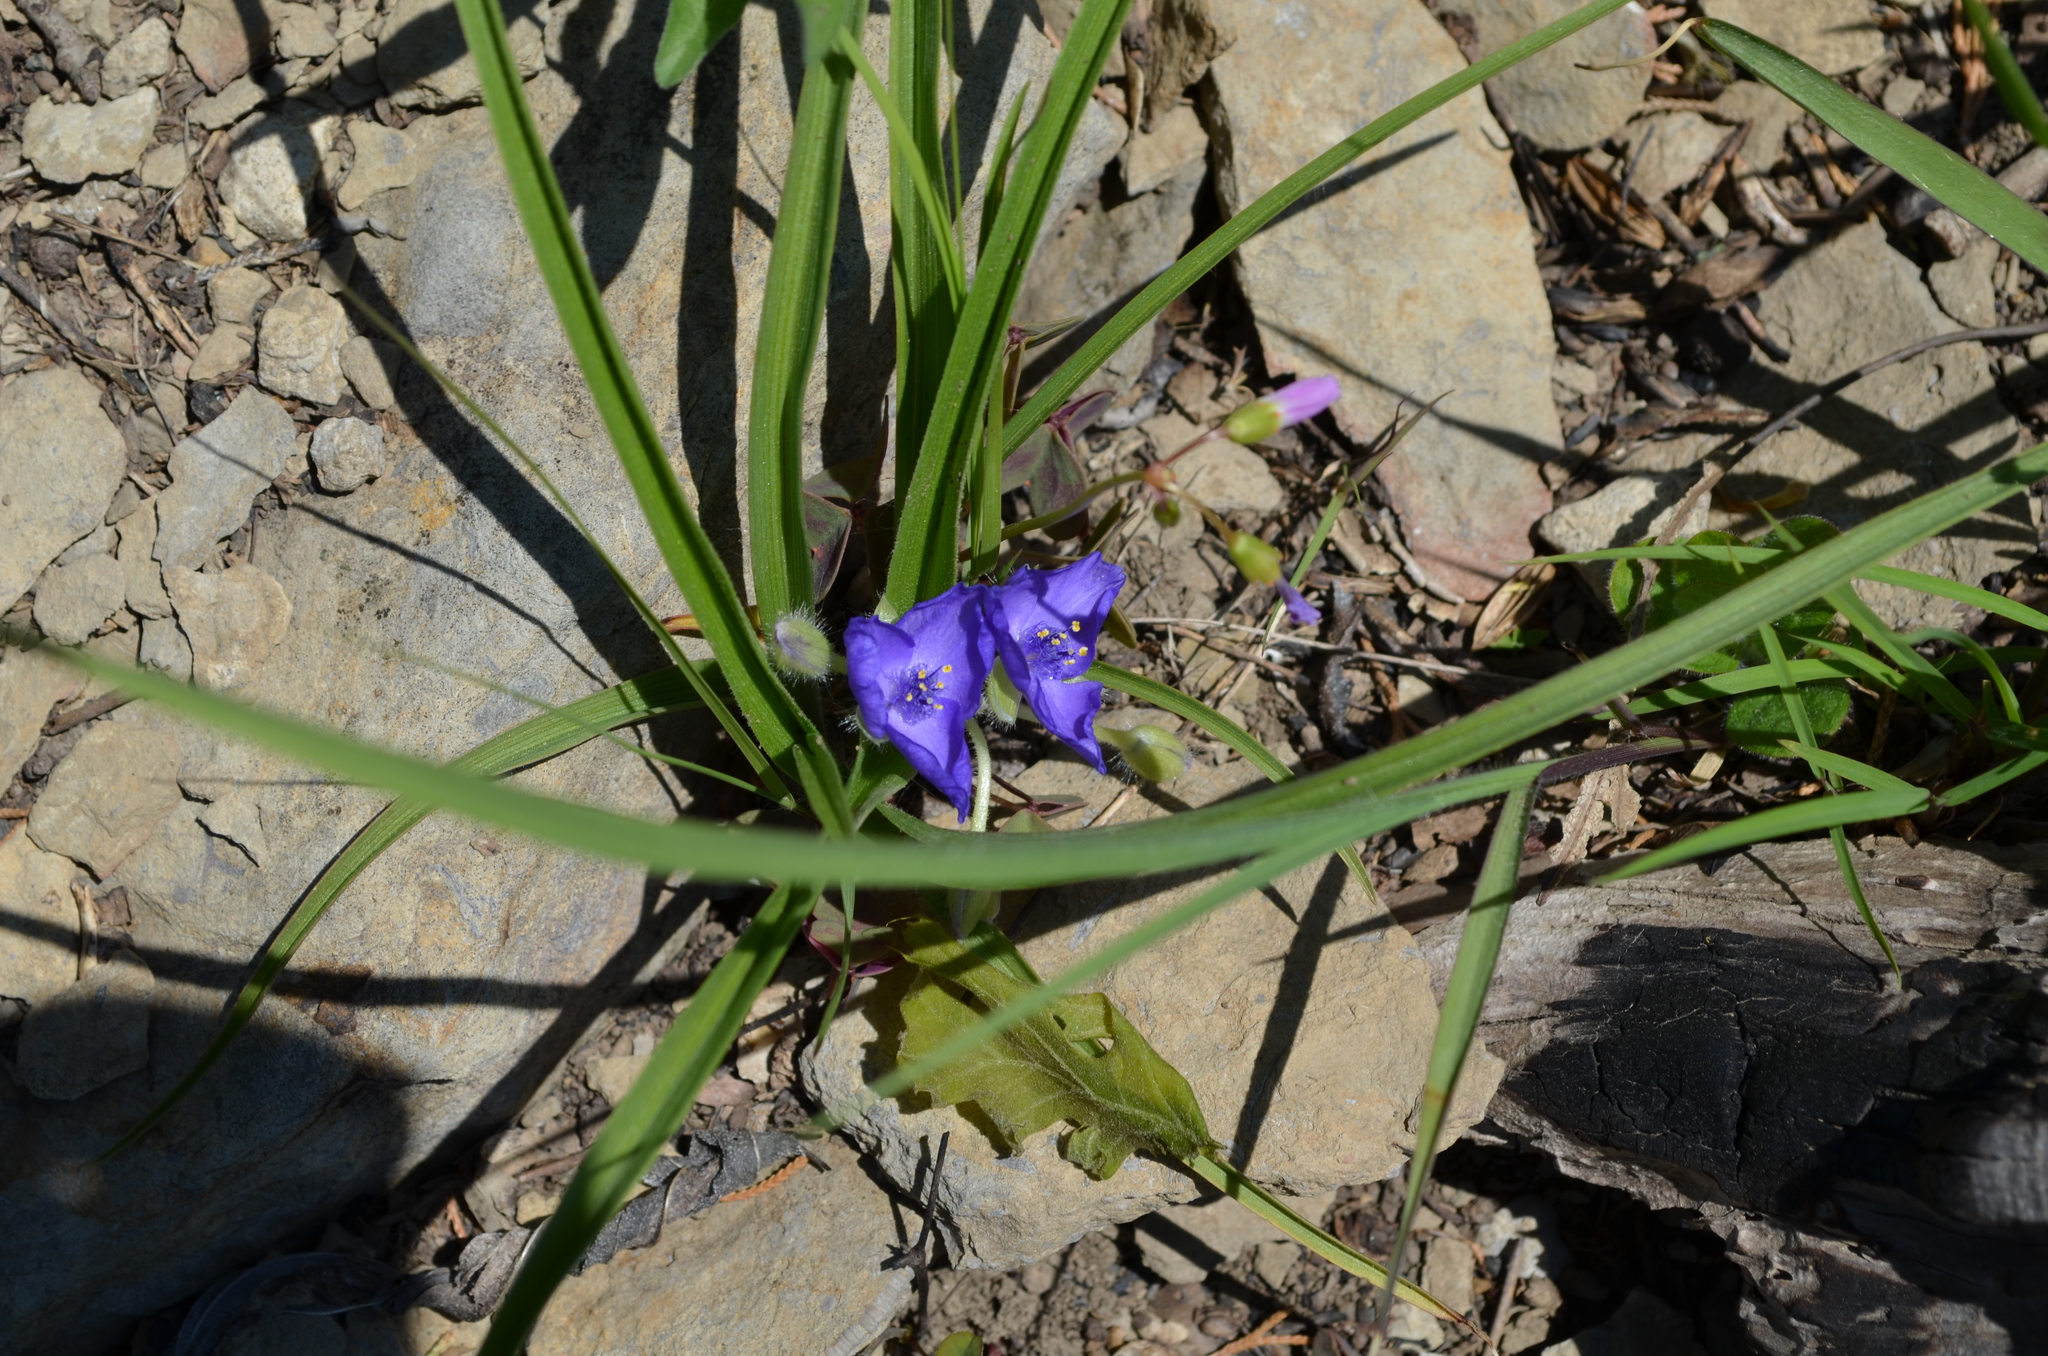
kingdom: Plantae
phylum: Tracheophyta
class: Liliopsida
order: Commelinales
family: Commelinaceae
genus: Tradescantia
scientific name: Tradescantia bracteata
